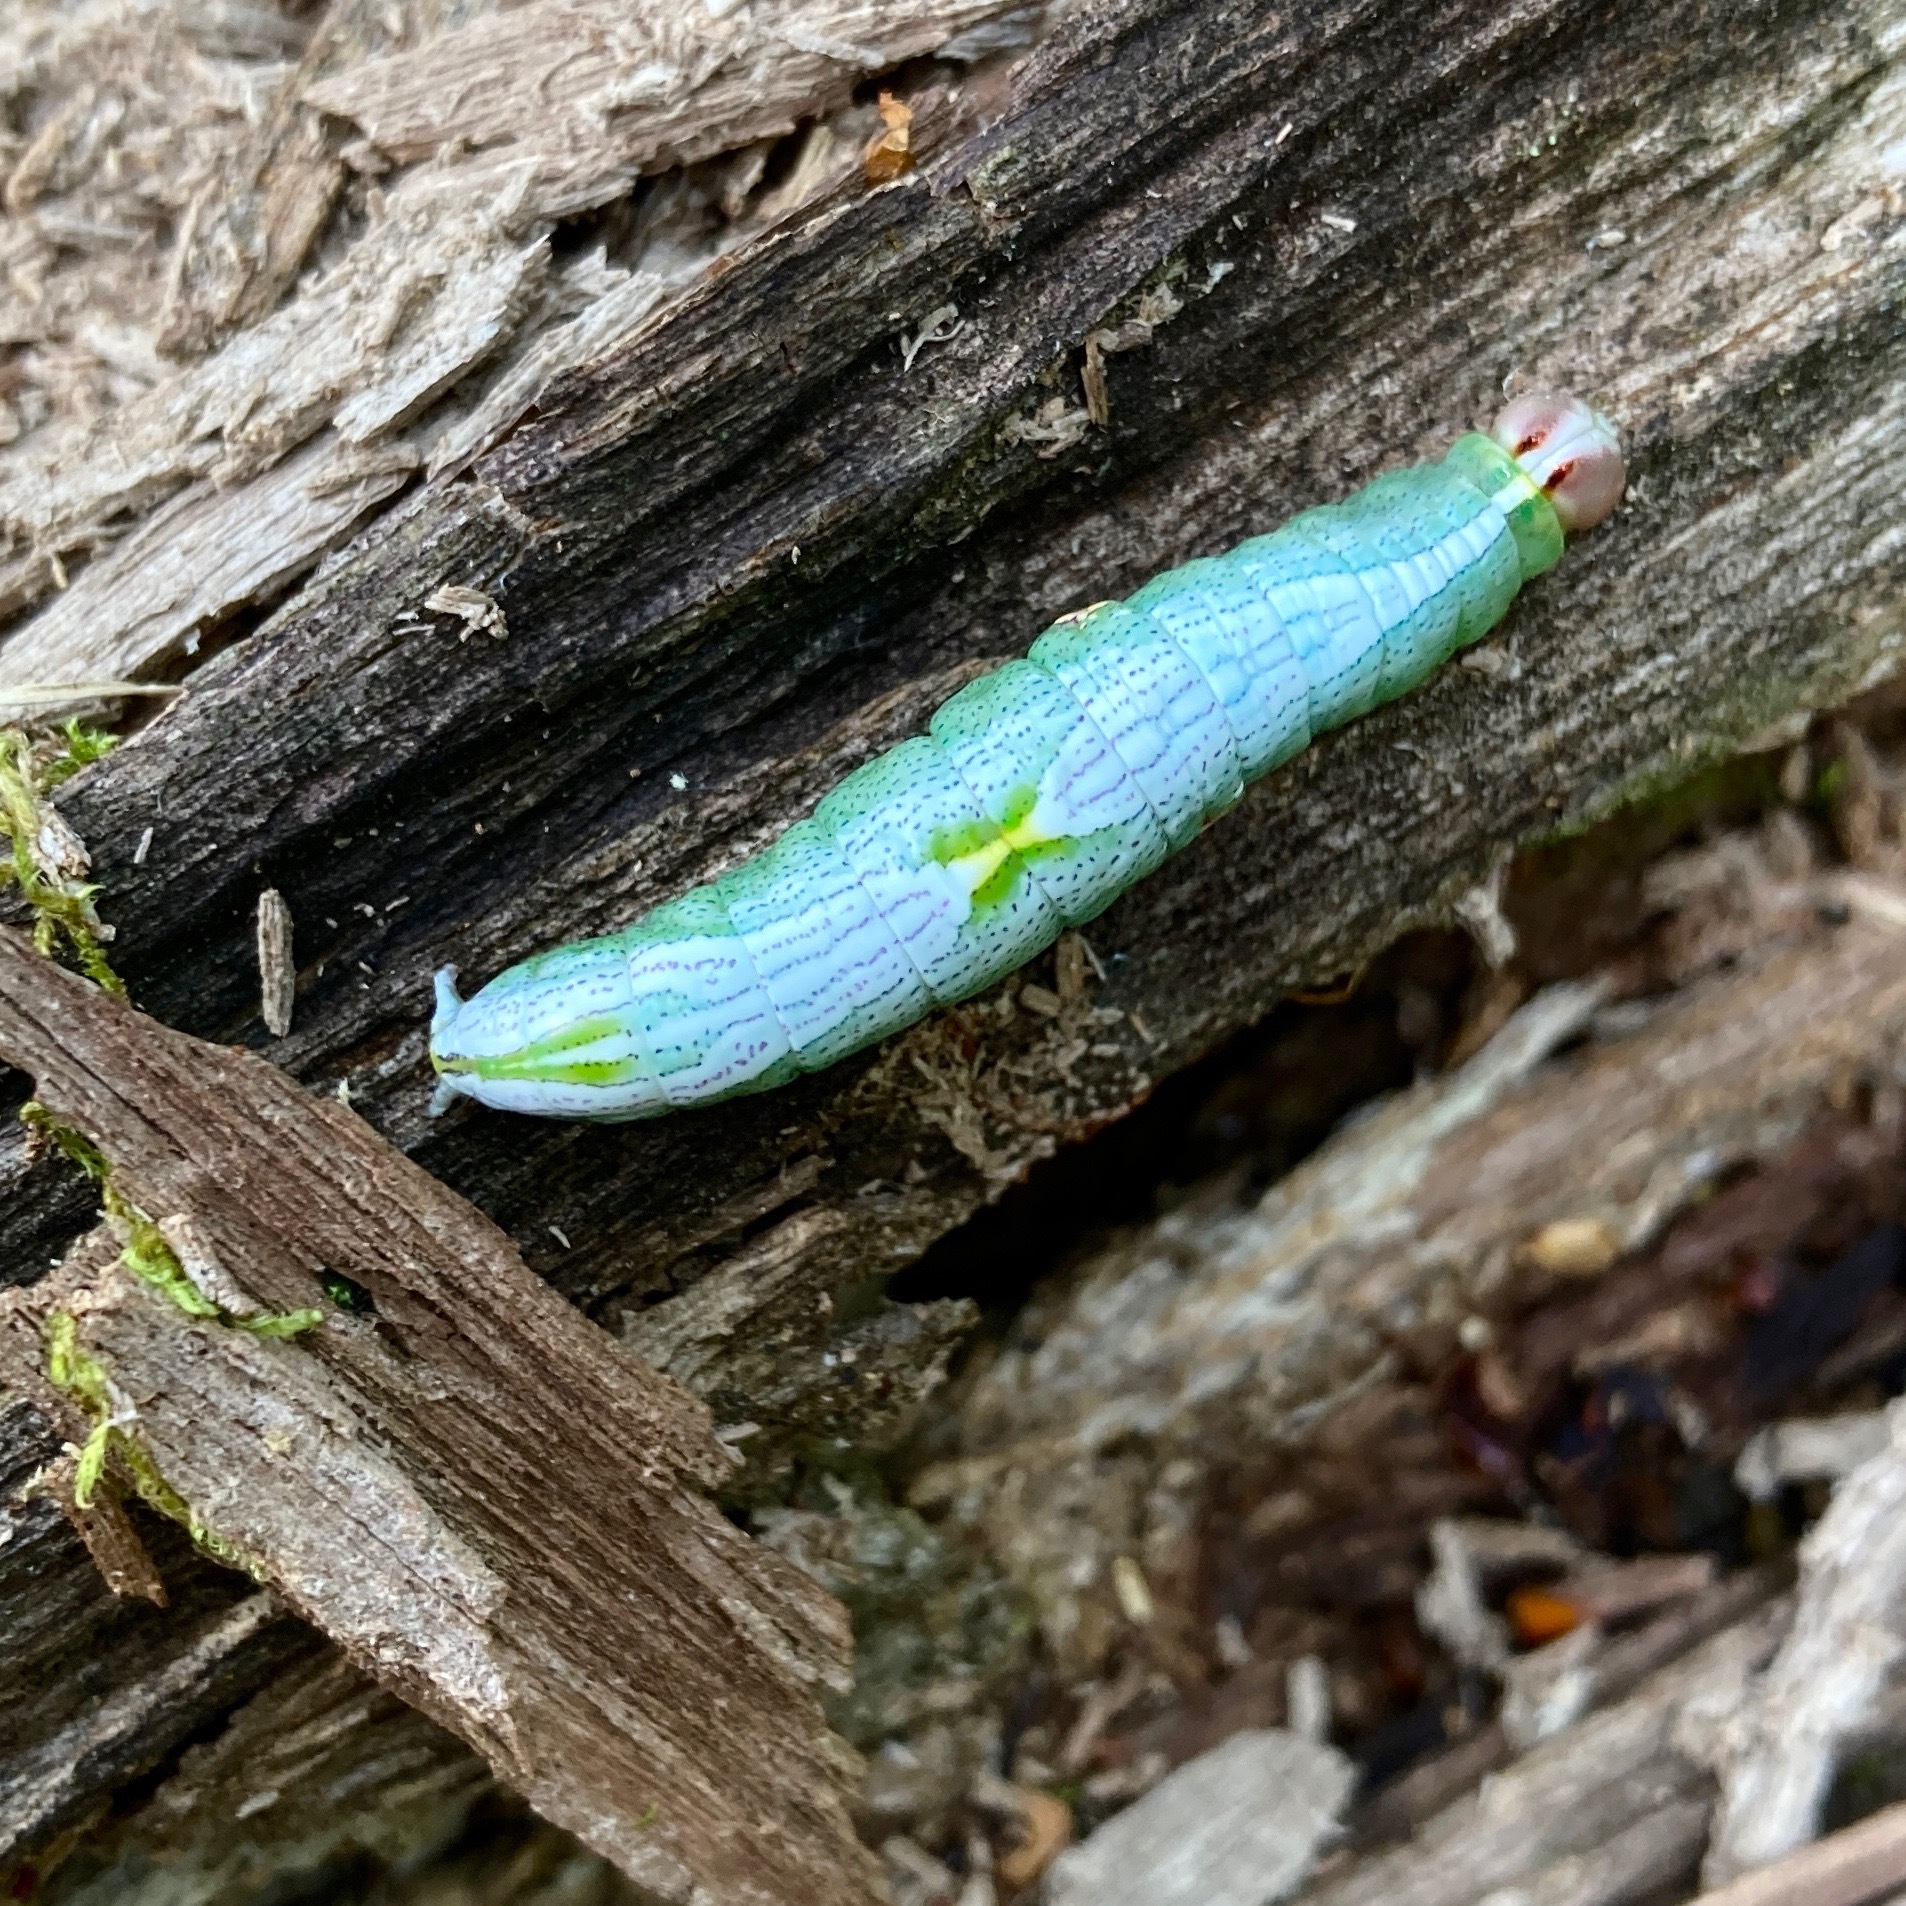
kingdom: Animalia
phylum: Arthropoda
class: Insecta
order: Lepidoptera
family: Notodontidae
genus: Disphragis
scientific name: Disphragis Cecrita biundata
